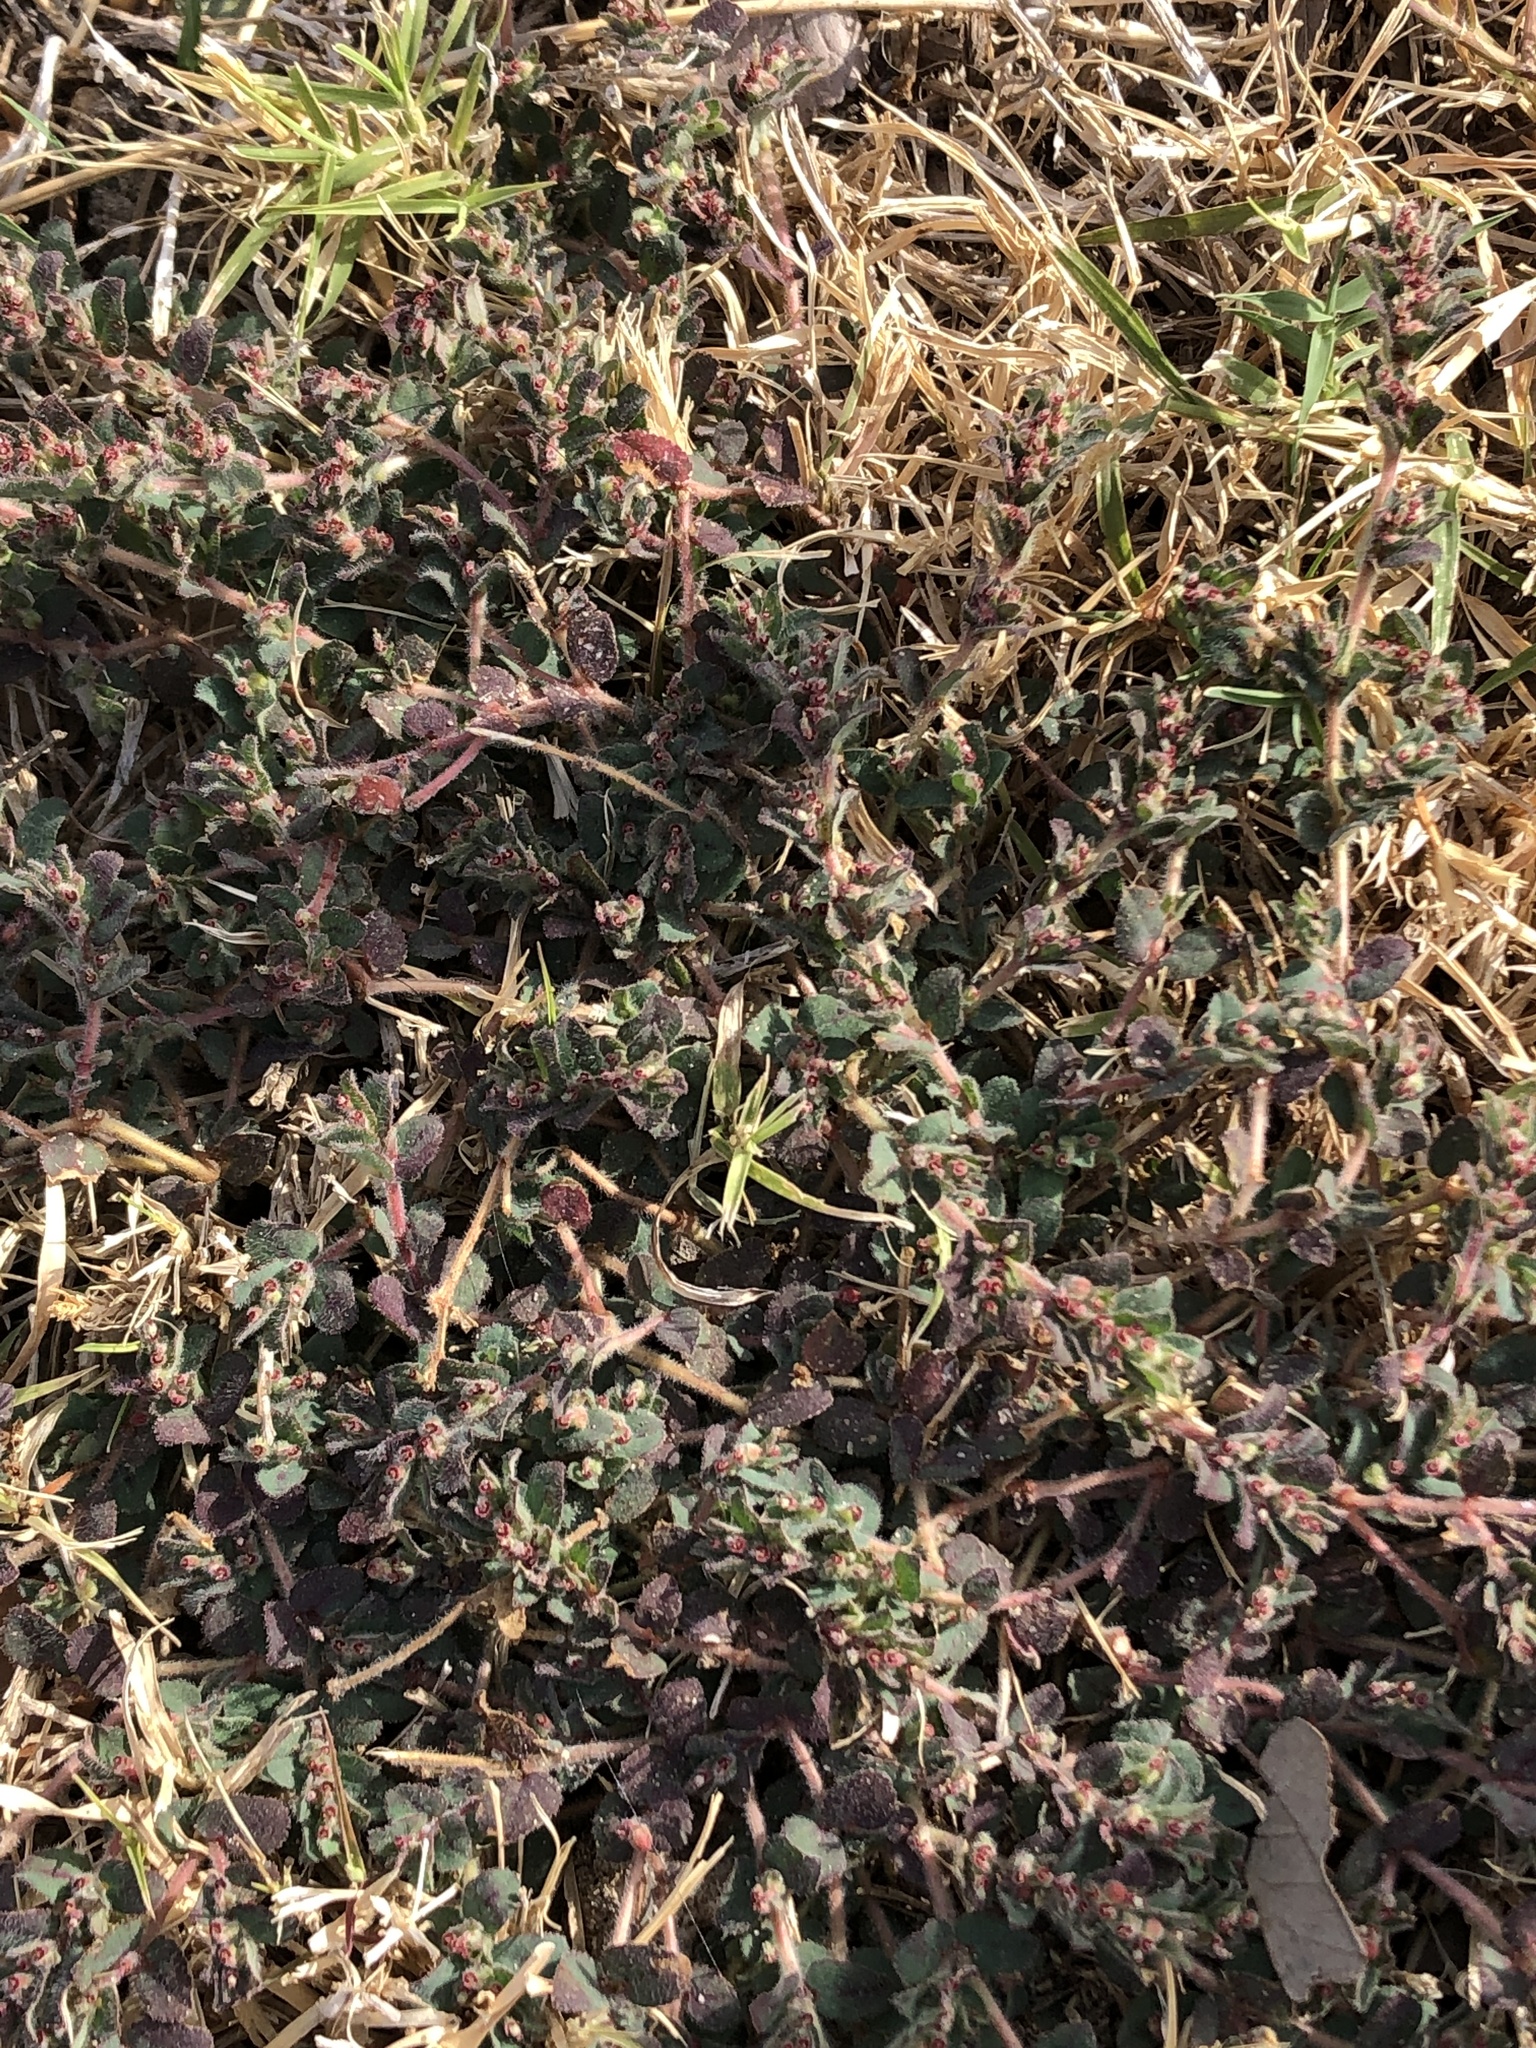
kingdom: Plantae
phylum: Tracheophyta
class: Magnoliopsida
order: Malpighiales
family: Euphorbiaceae
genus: Euphorbia
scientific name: Euphorbia velleriflora
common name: Caliche sandmat
